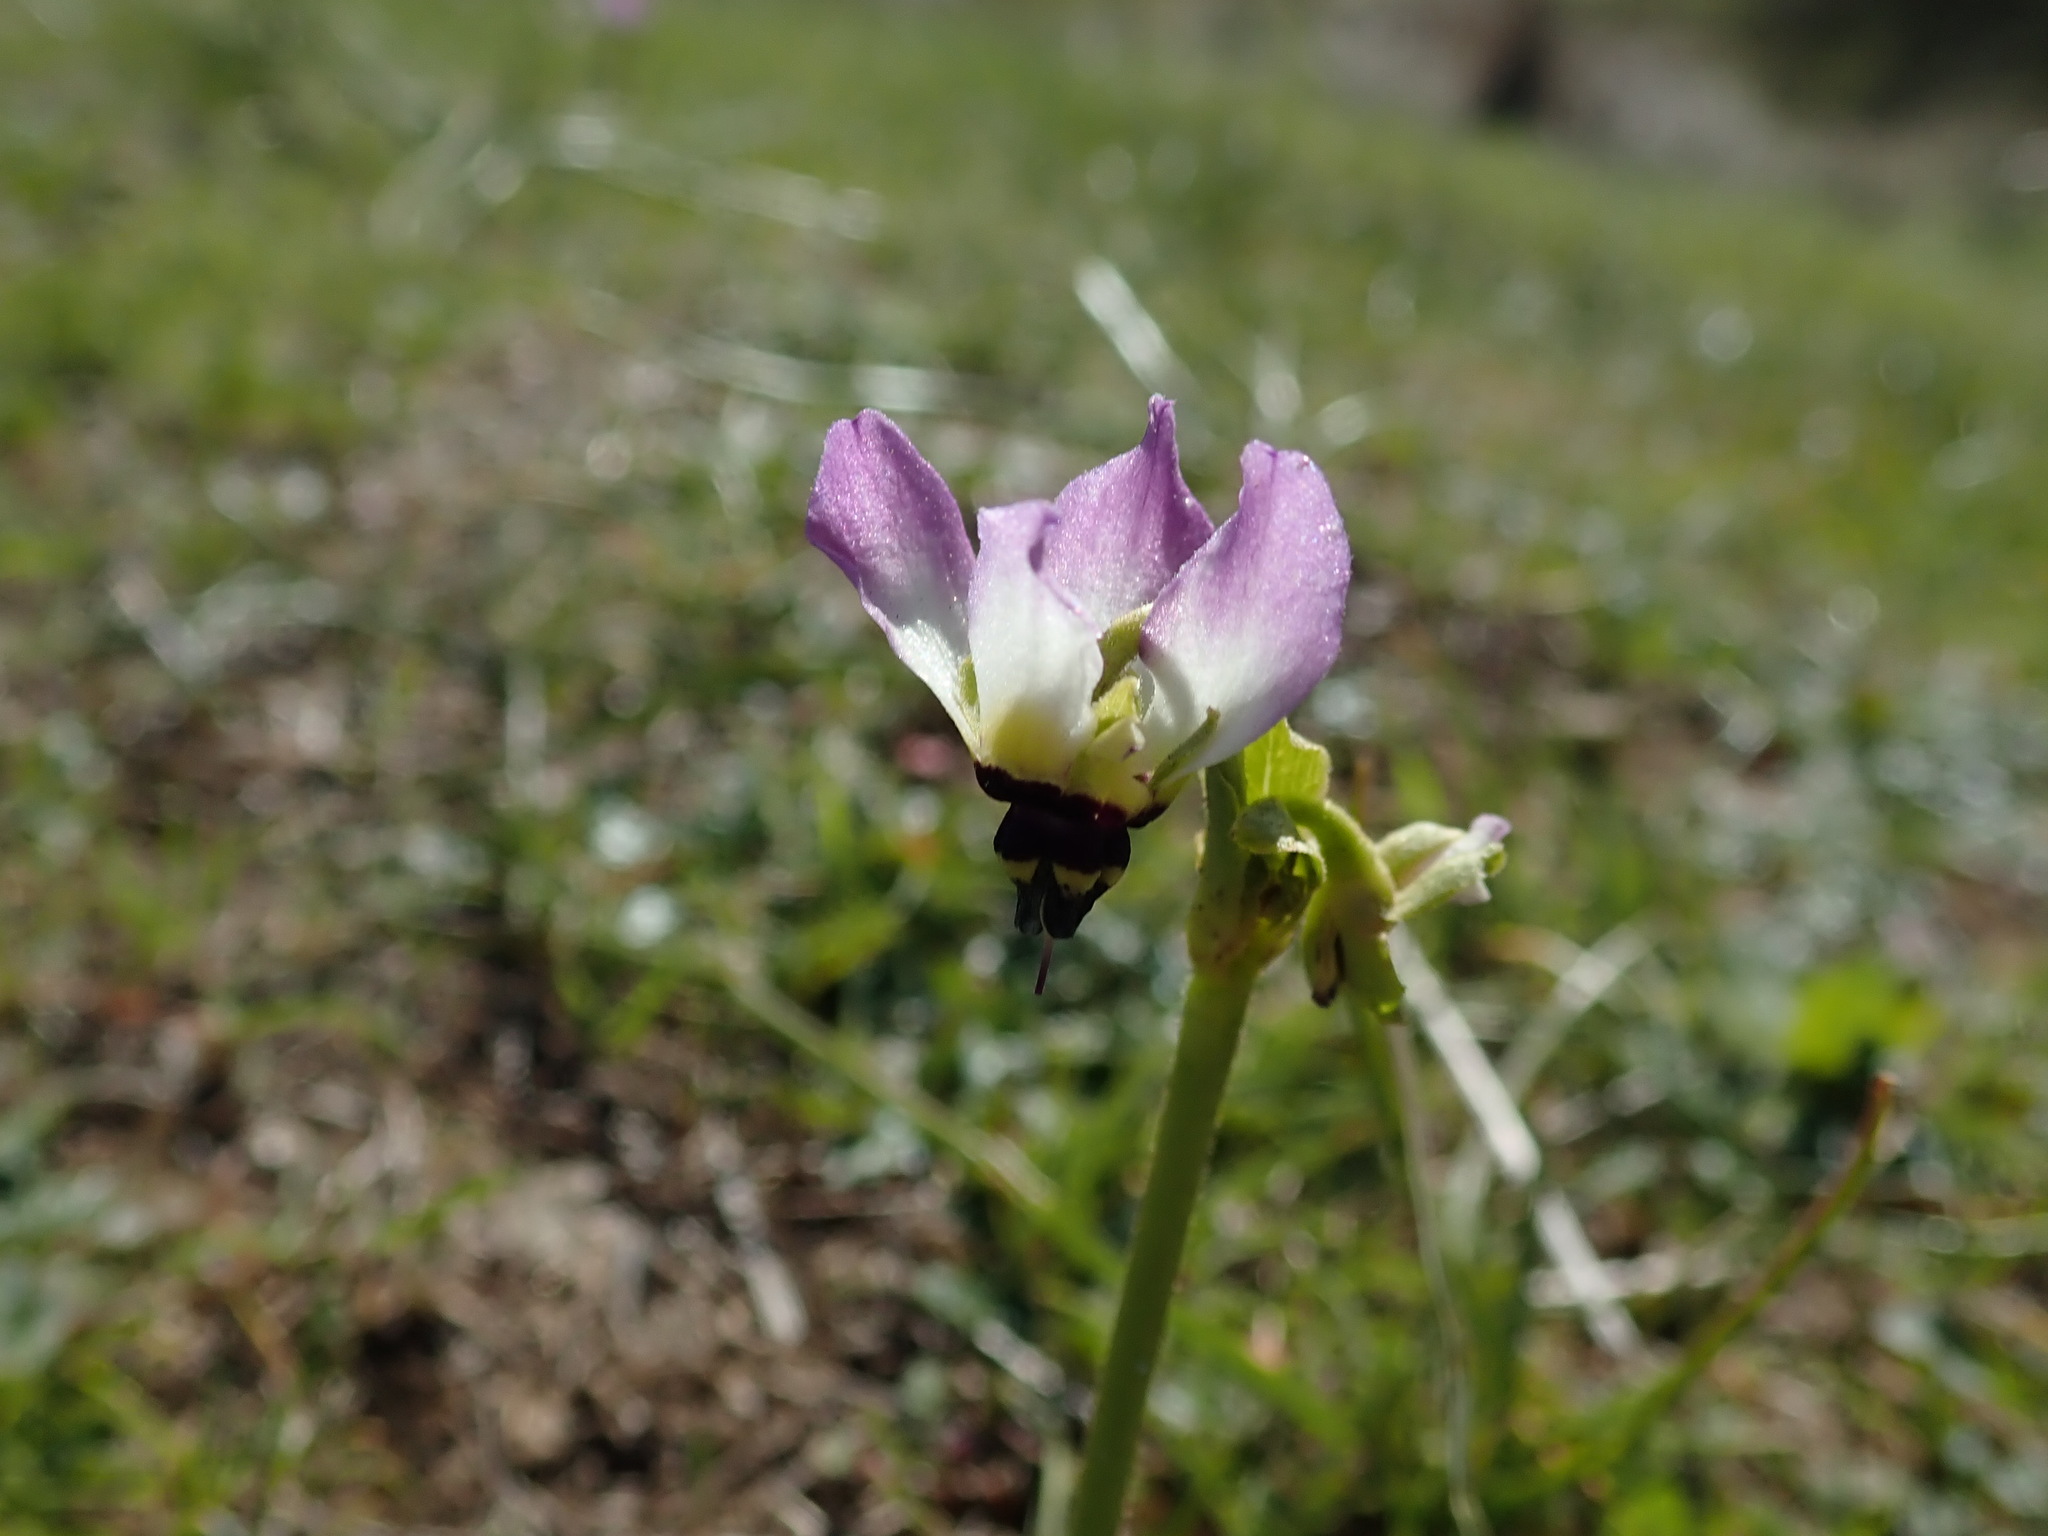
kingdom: Plantae
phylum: Tracheophyta
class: Magnoliopsida
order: Ericales
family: Primulaceae
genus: Dodecatheon
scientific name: Dodecatheon clevelandii
